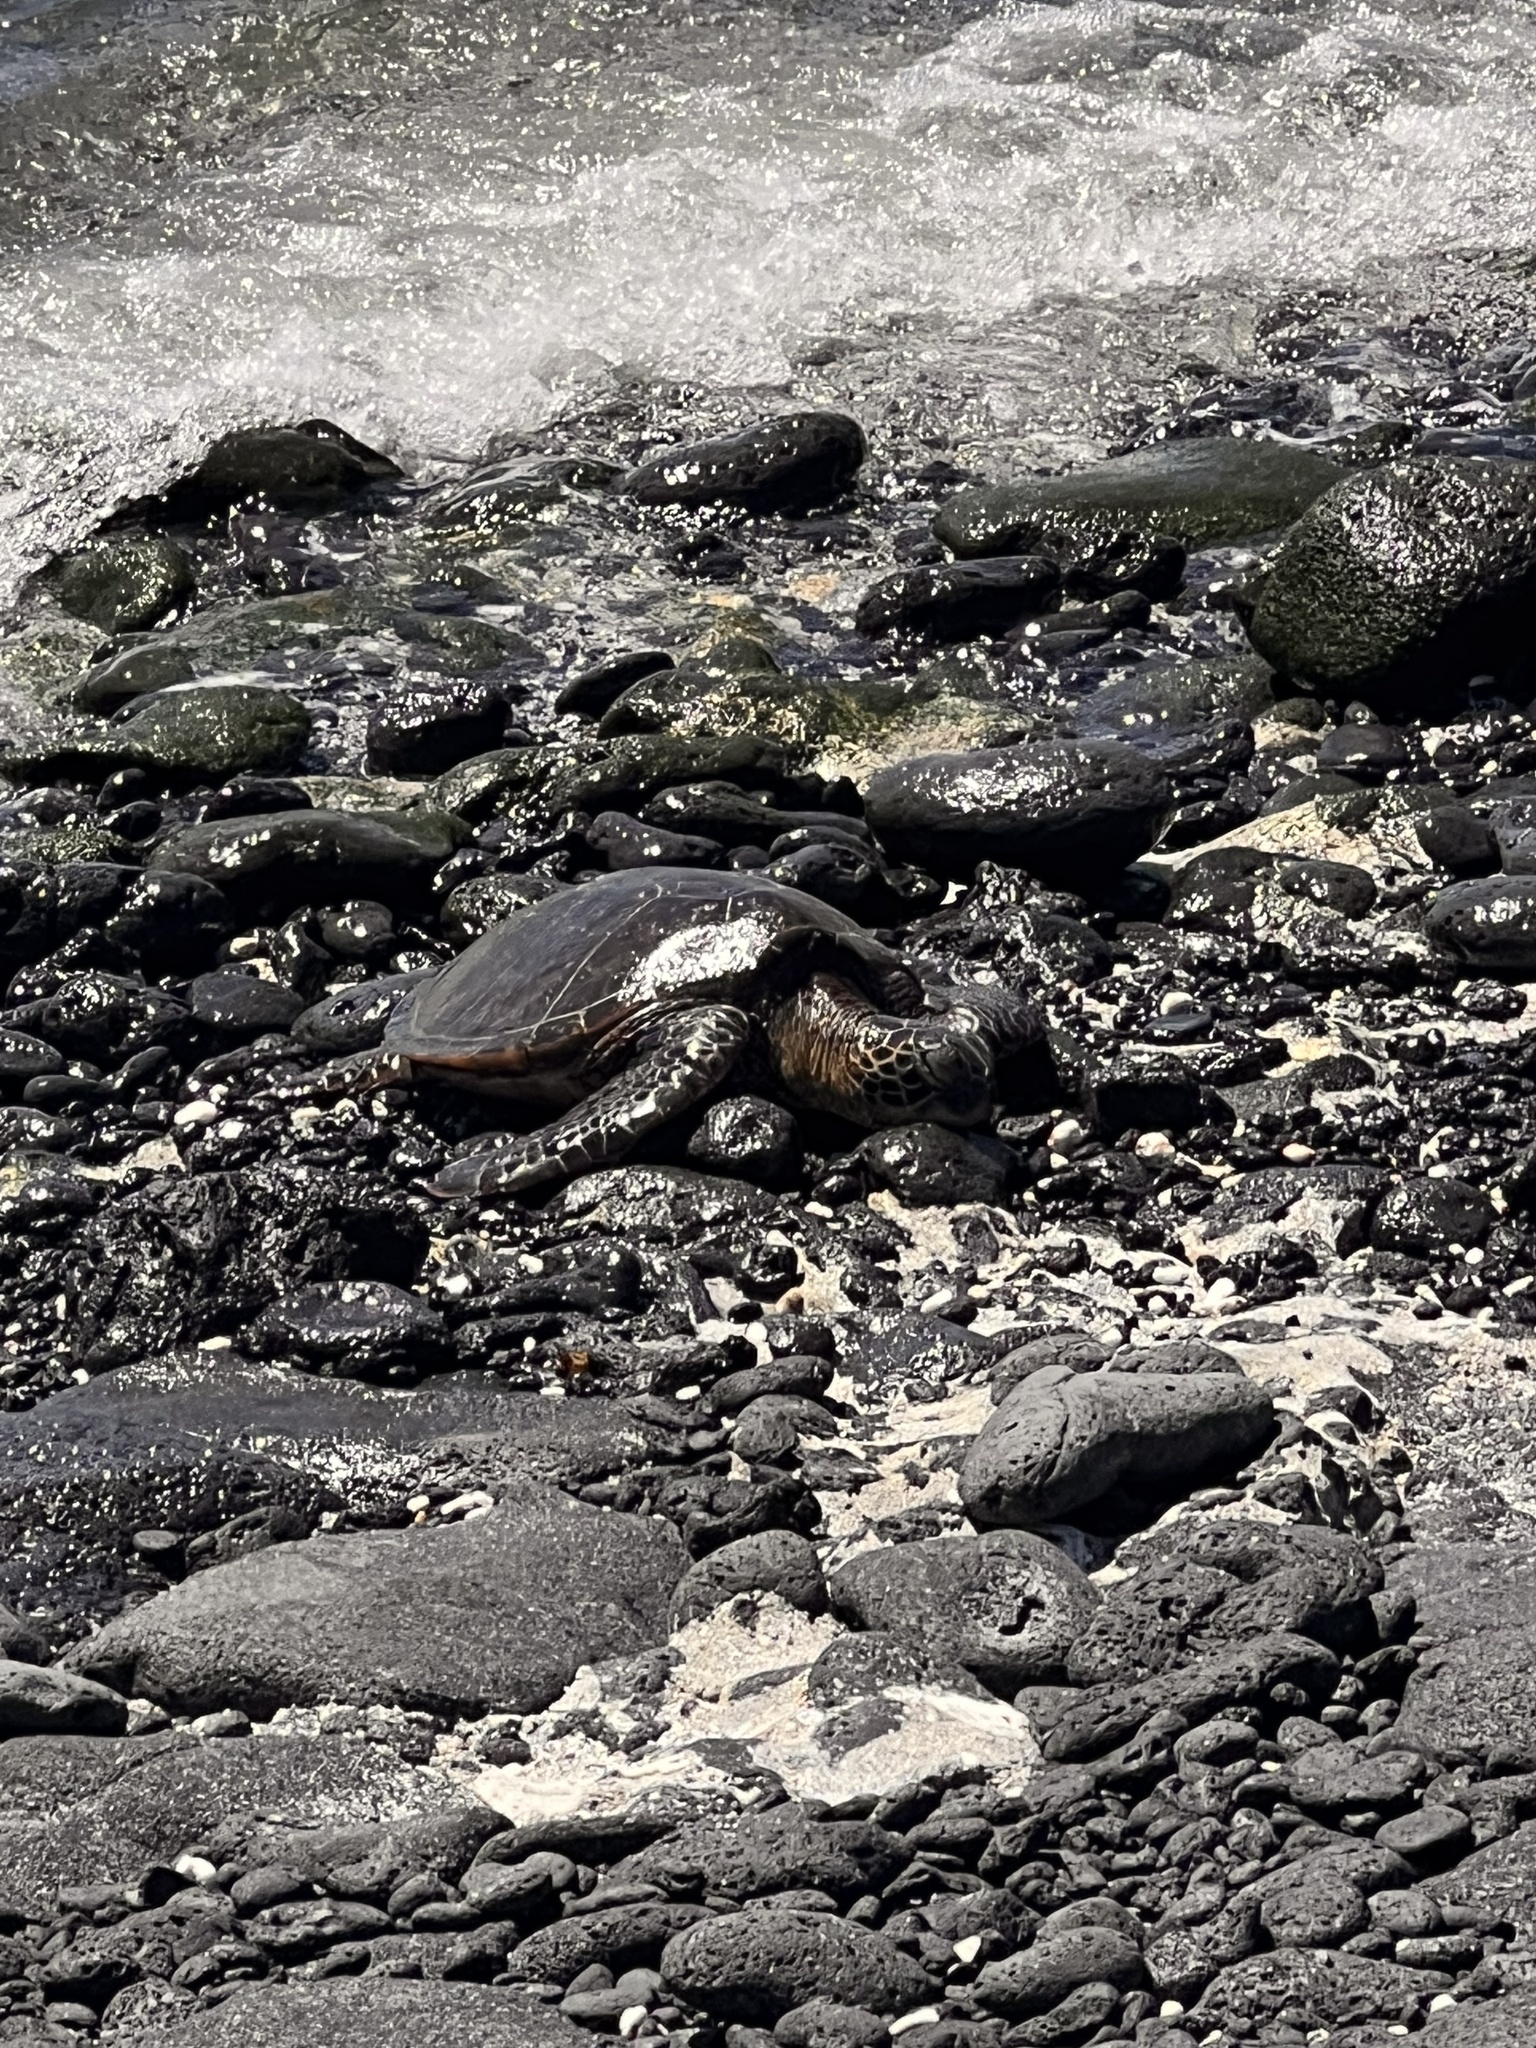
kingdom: Animalia
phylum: Chordata
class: Testudines
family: Cheloniidae
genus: Chelonia
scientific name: Chelonia mydas
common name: Green turtle
